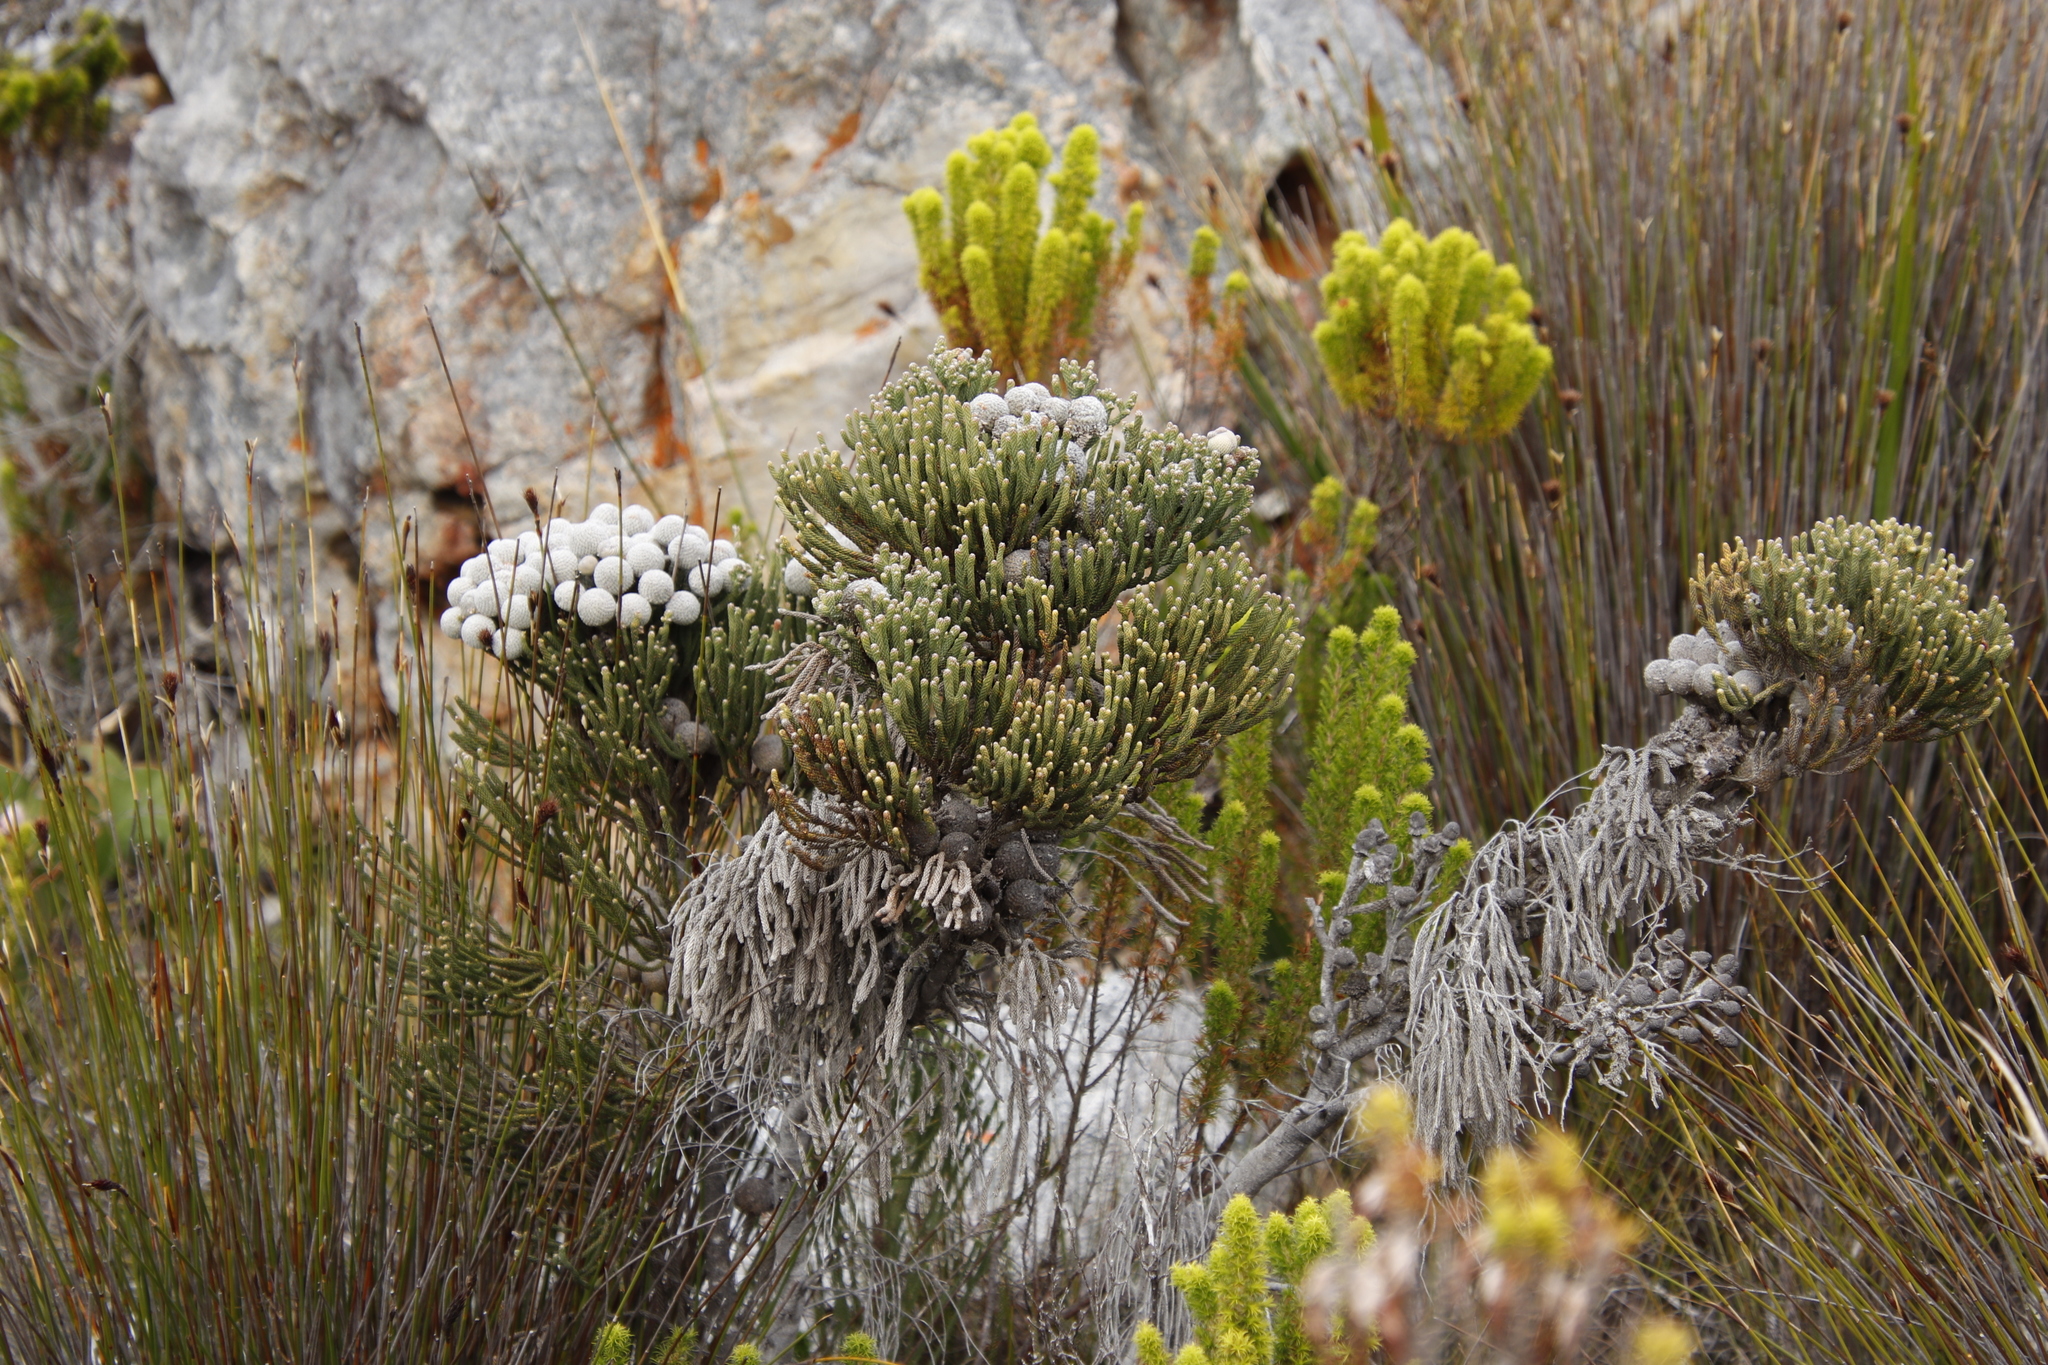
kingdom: Plantae
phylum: Tracheophyta
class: Magnoliopsida
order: Bruniales
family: Bruniaceae
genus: Brunia
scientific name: Brunia laevis
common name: Silver brunia
